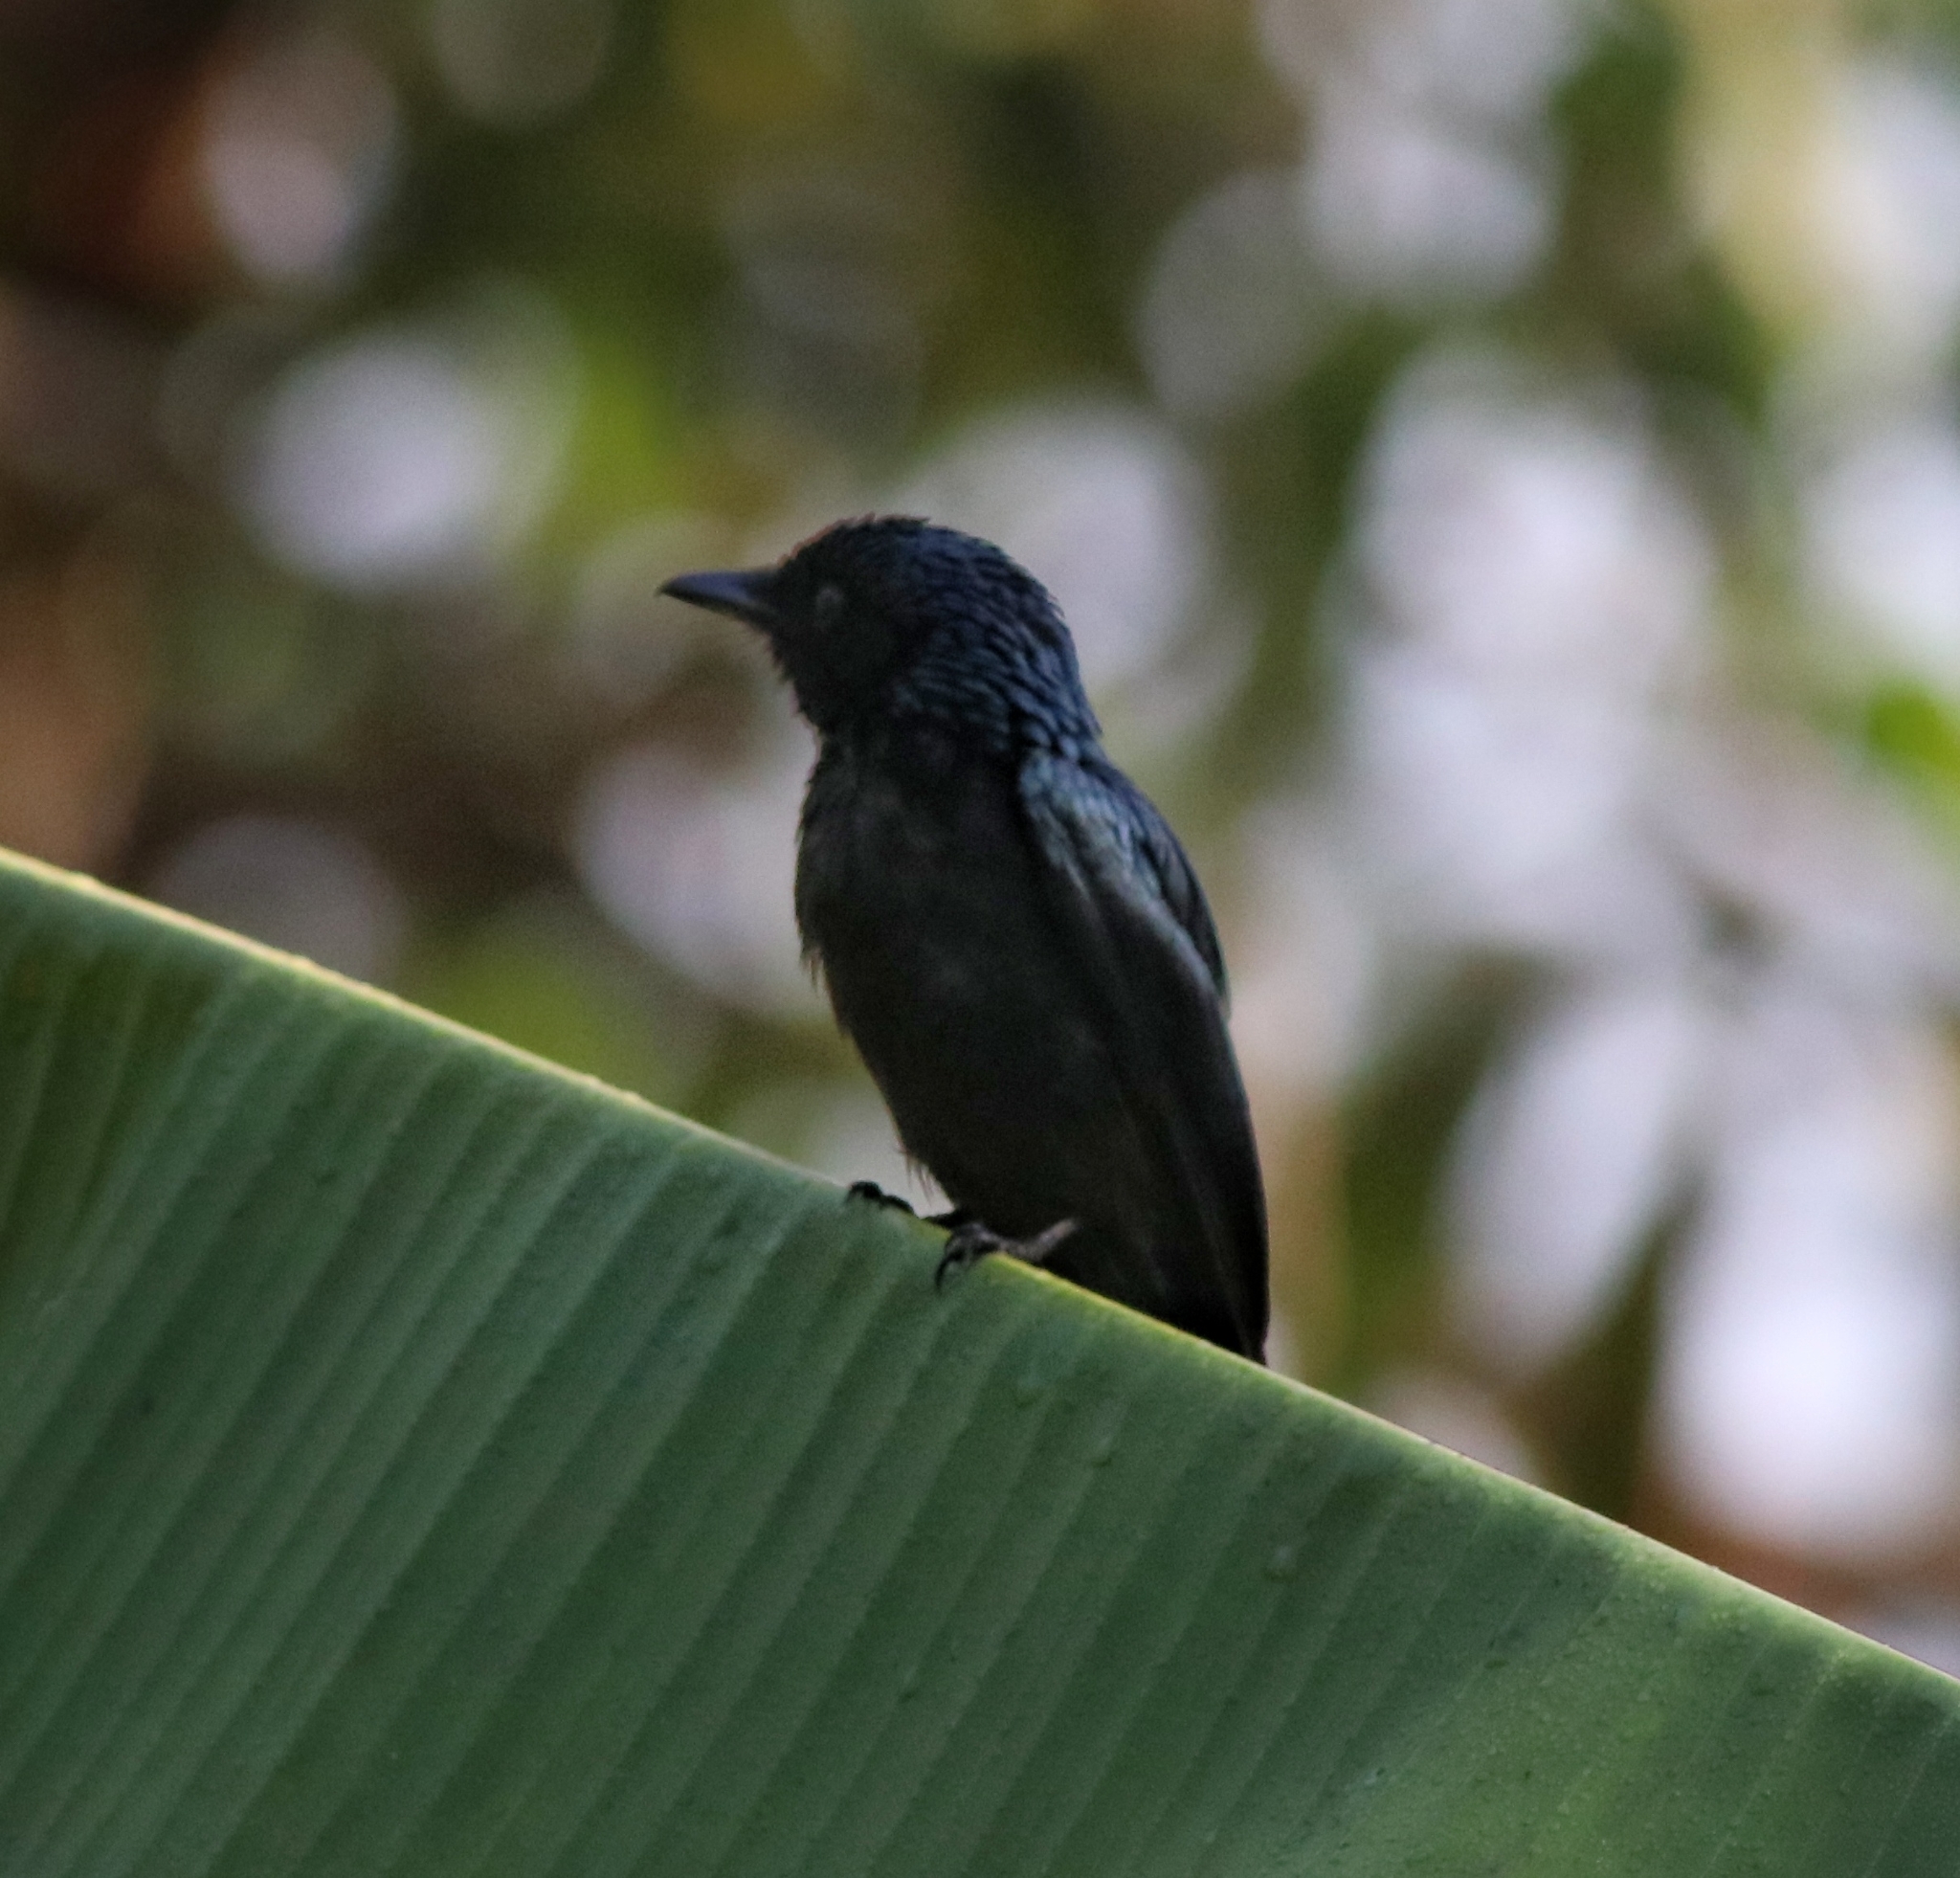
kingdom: Animalia
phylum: Chordata
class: Aves
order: Passeriformes
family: Dicruridae
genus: Dicrurus
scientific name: Dicrurus aeneus
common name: Bronzed drongo
